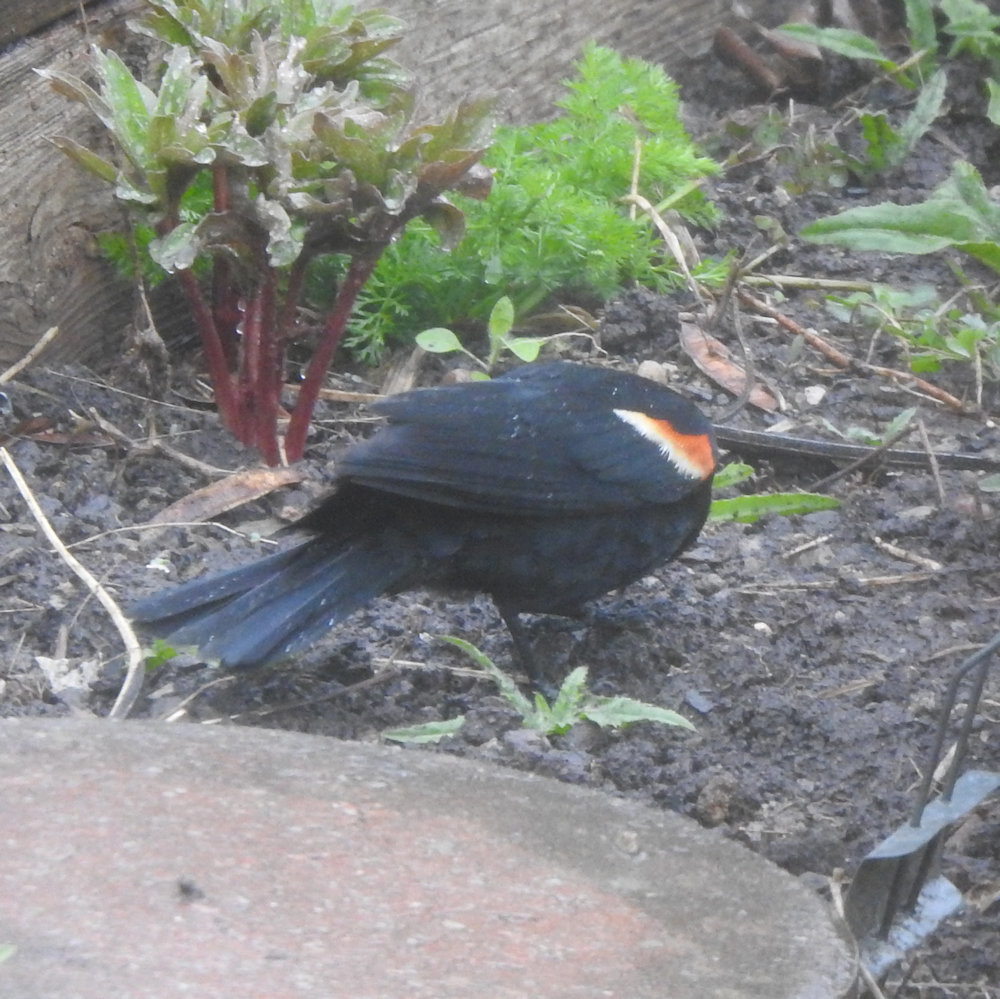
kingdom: Animalia
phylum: Chordata
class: Aves
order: Passeriformes
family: Icteridae
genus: Agelaius
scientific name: Agelaius phoeniceus
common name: Red-winged blackbird
